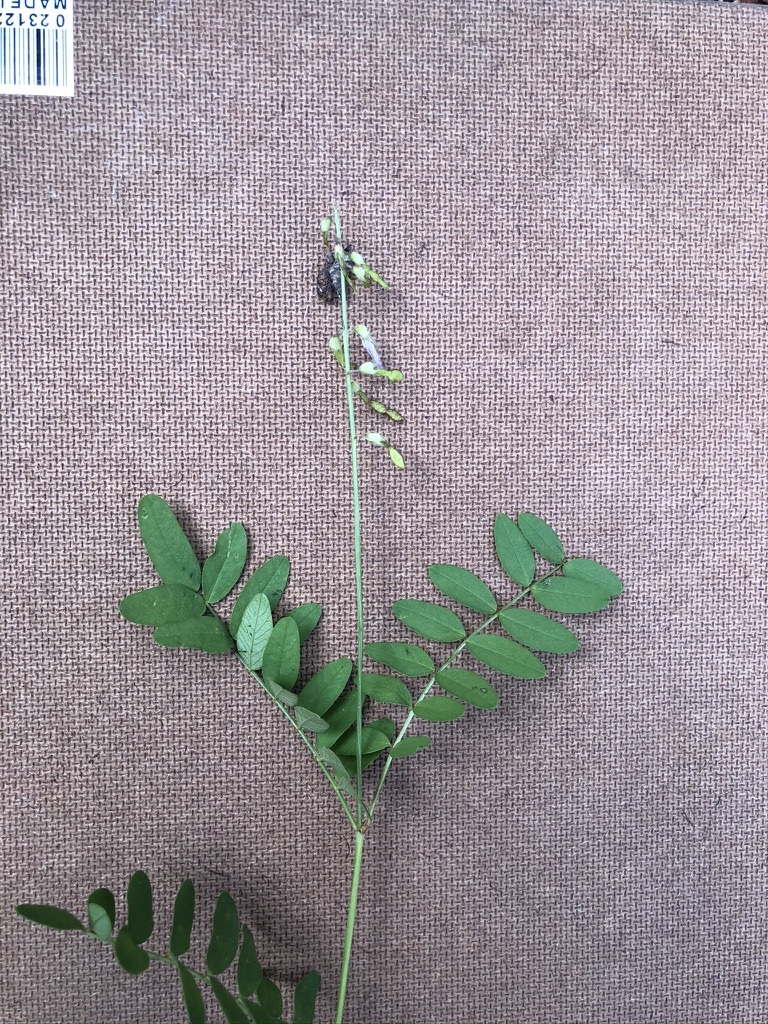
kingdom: Plantae
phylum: Tracheophyta
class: Magnoliopsida
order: Fabales
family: Fabaceae
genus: Hedysarum
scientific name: Hedysarum alpinum
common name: Alpine sweet-vetch
